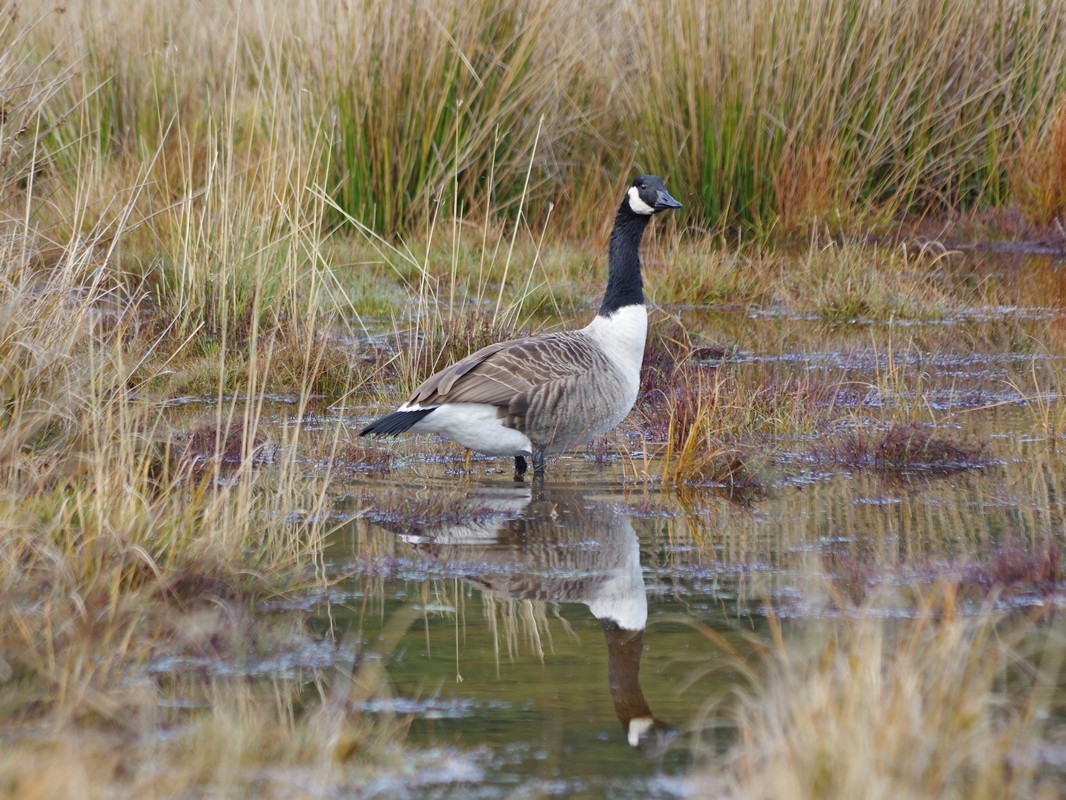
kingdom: Animalia
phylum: Chordata
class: Aves
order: Anseriformes
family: Anatidae
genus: Branta
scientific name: Branta canadensis
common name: Canada goose
